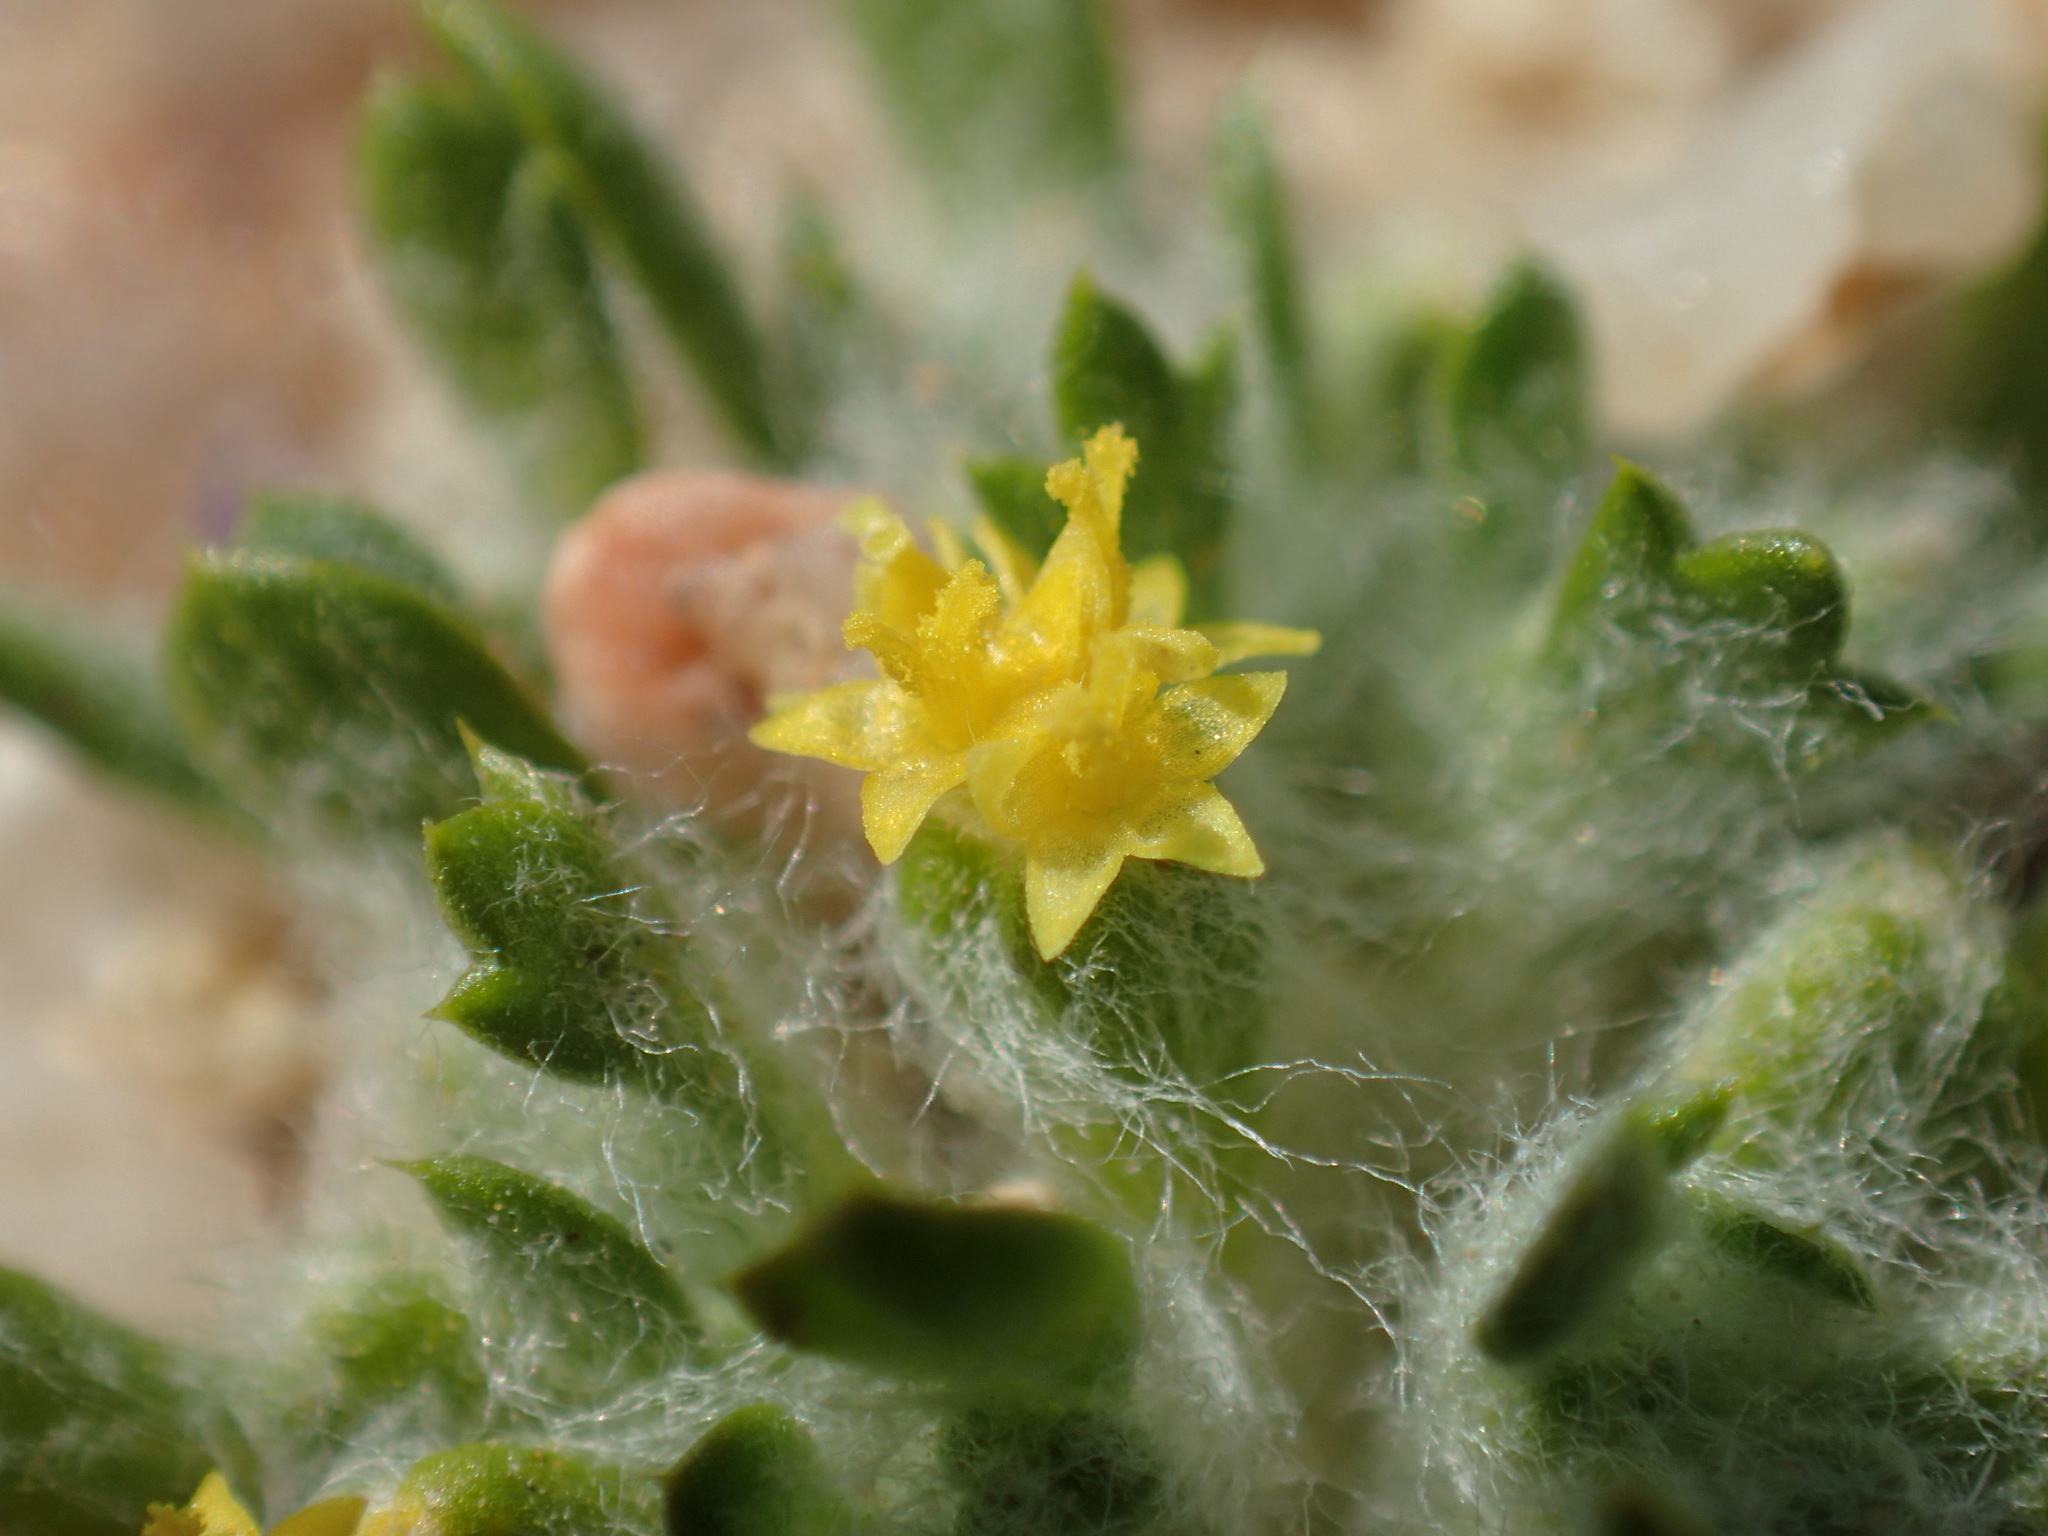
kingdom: Plantae
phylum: Tracheophyta
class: Magnoliopsida
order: Asterales
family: Asteraceae
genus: Eriophyllum
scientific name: Eriophyllum mohavense
